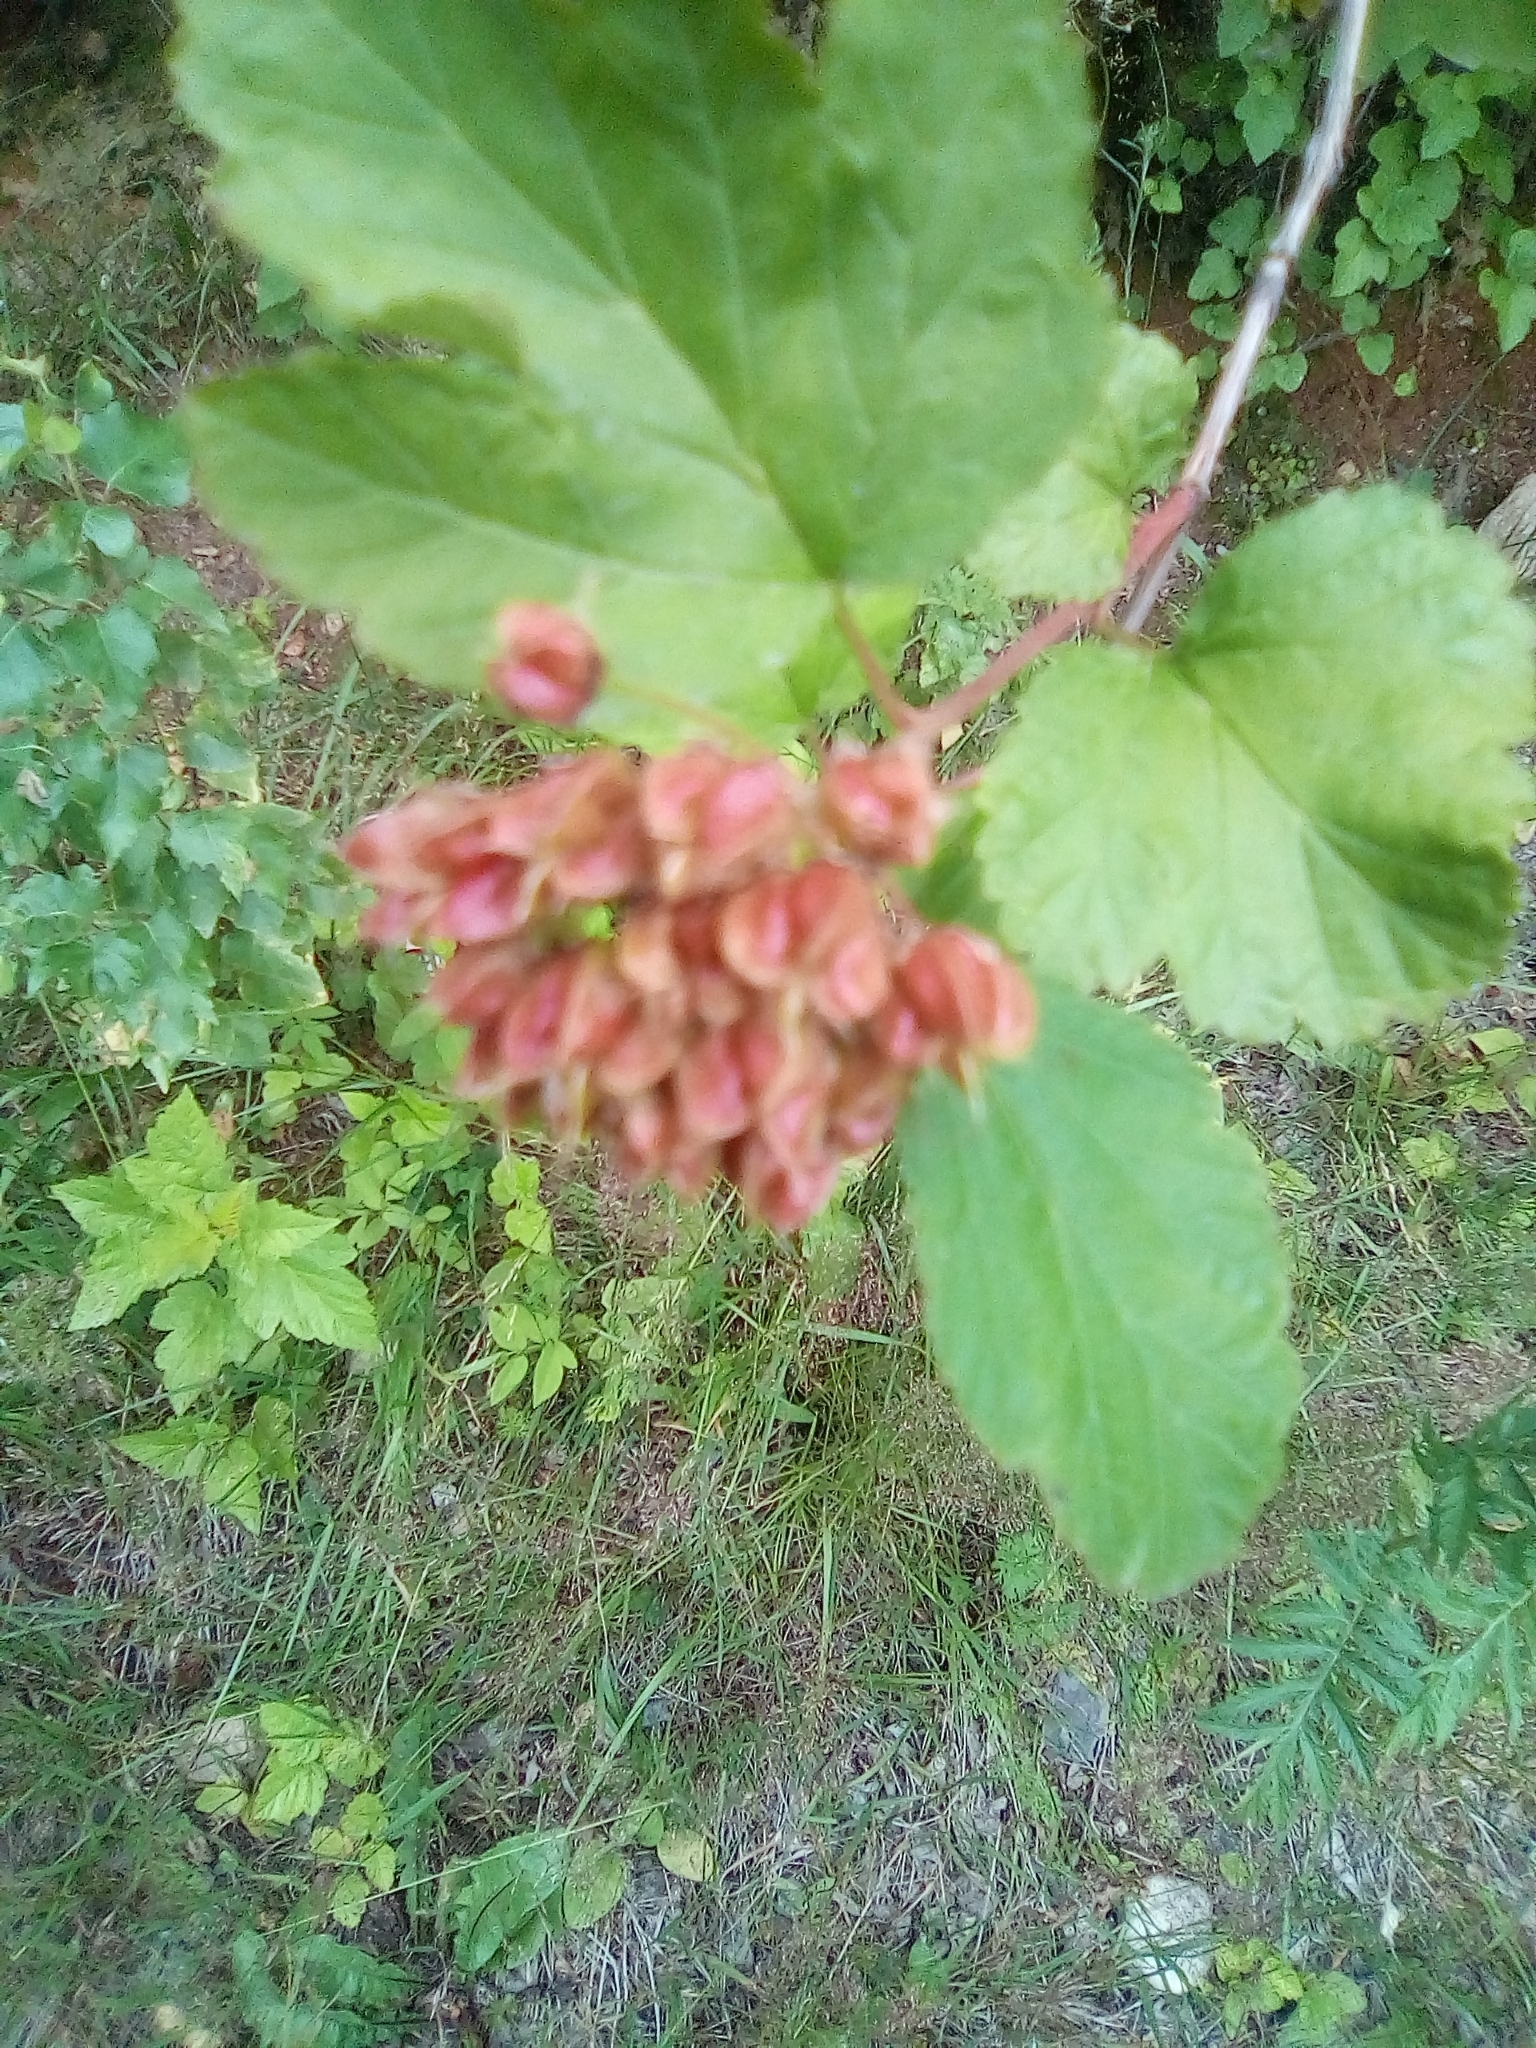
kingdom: Plantae
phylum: Tracheophyta
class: Magnoliopsida
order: Rosales
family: Rosaceae
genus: Physocarpus
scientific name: Physocarpus opulifolius
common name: Ninebark
